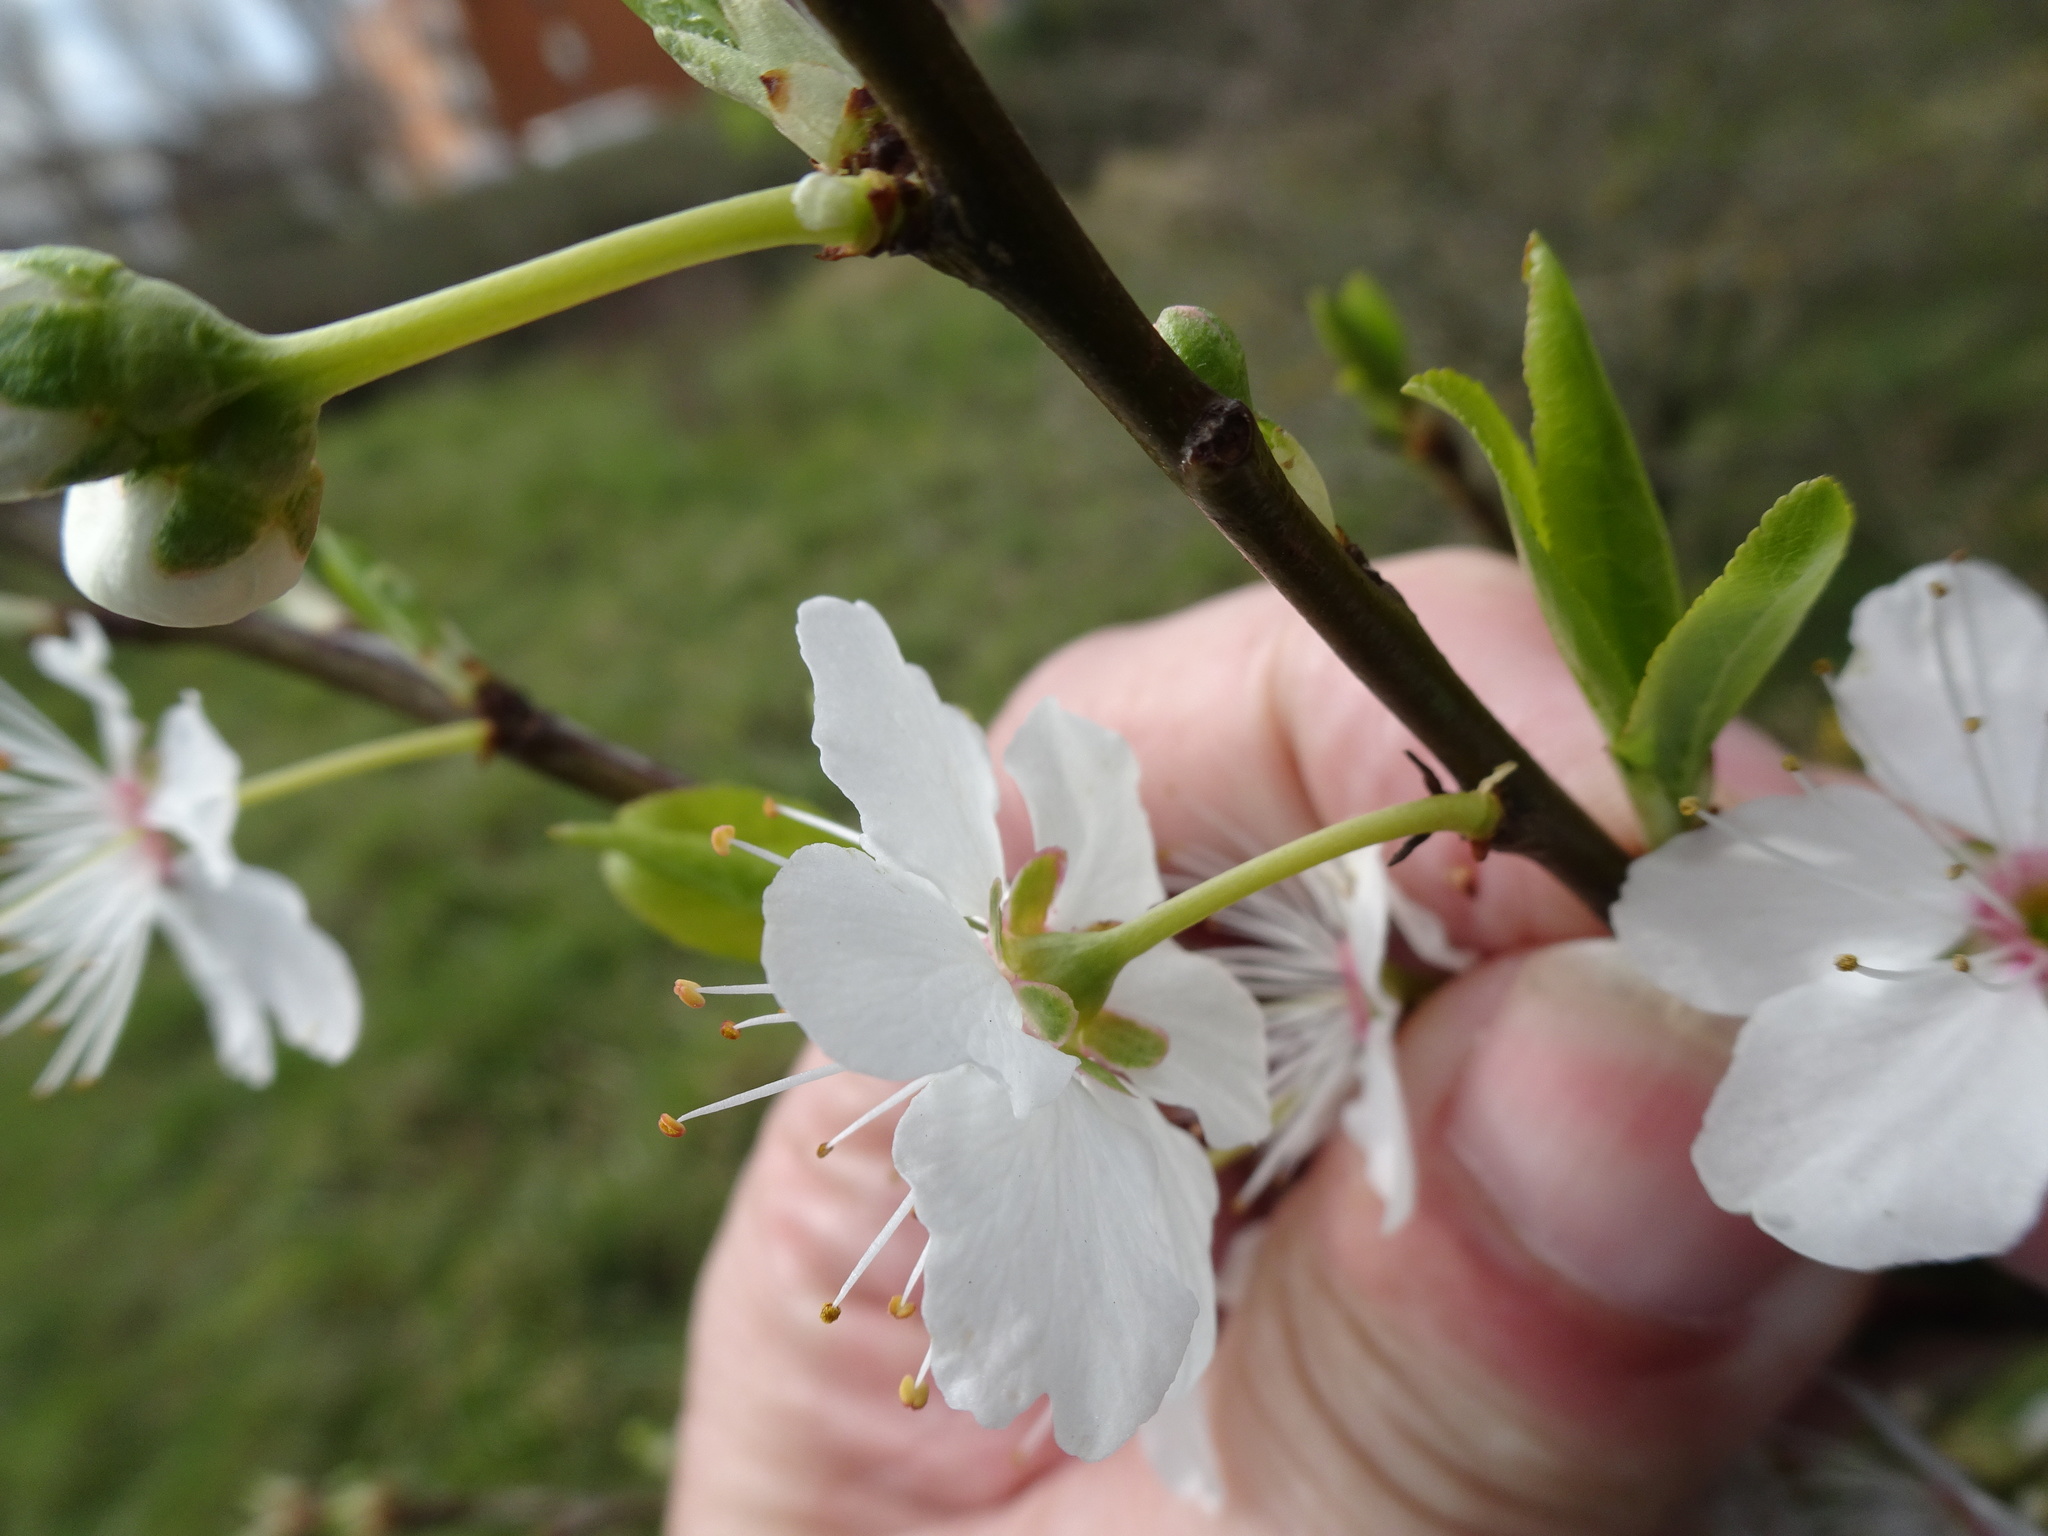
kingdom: Plantae
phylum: Tracheophyta
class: Magnoliopsida
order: Rosales
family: Rosaceae
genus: Prunus
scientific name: Prunus cerasifera
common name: Cherry plum
